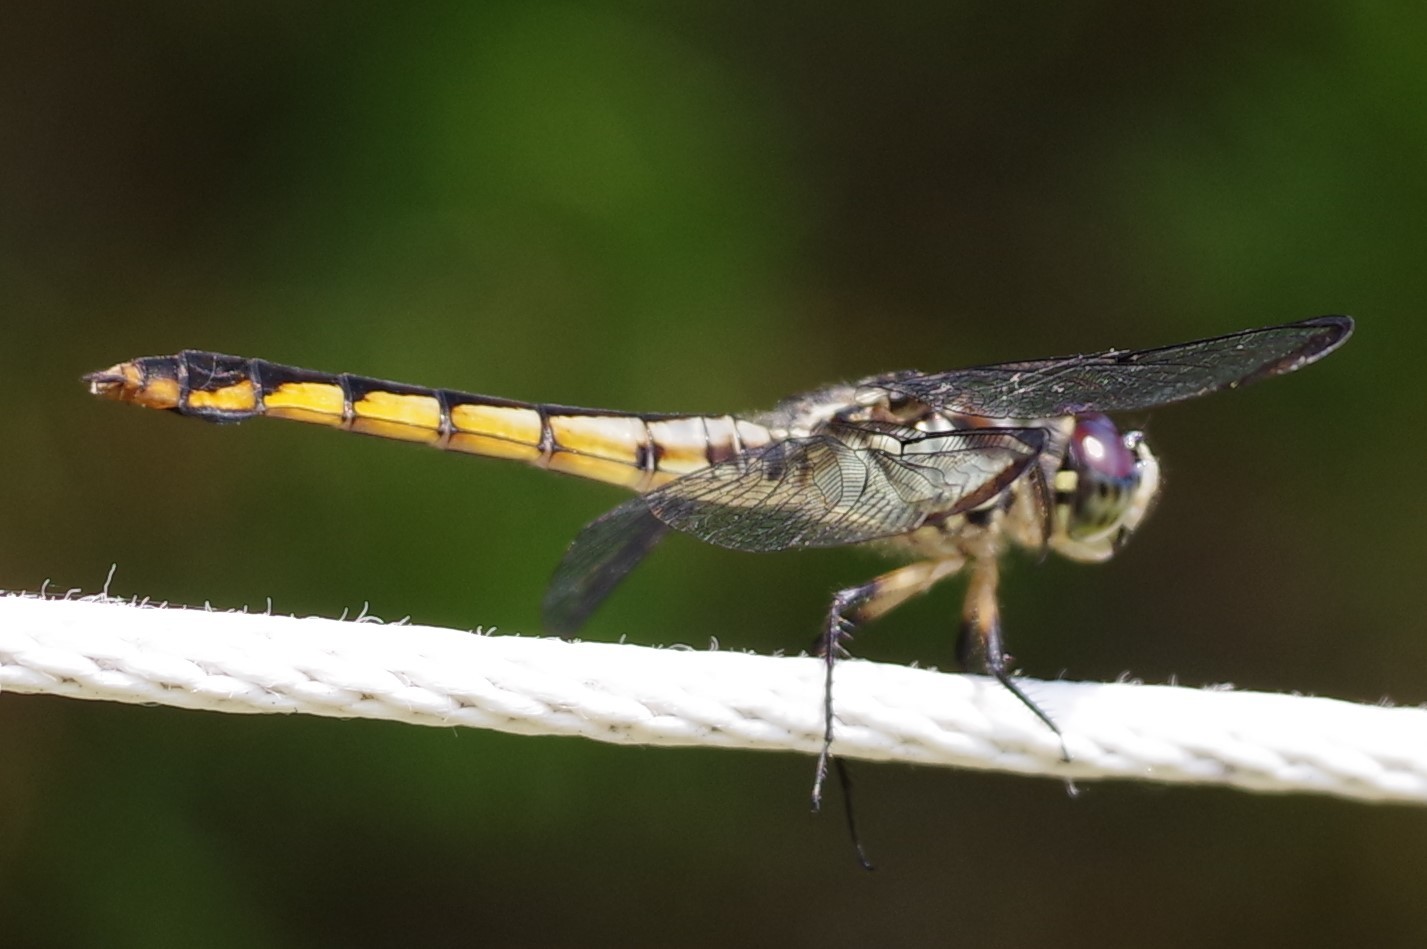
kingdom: Animalia
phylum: Arthropoda
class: Insecta
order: Odonata
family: Libellulidae
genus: Libellula
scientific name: Libellula vibrans
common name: Great blue skimmer
